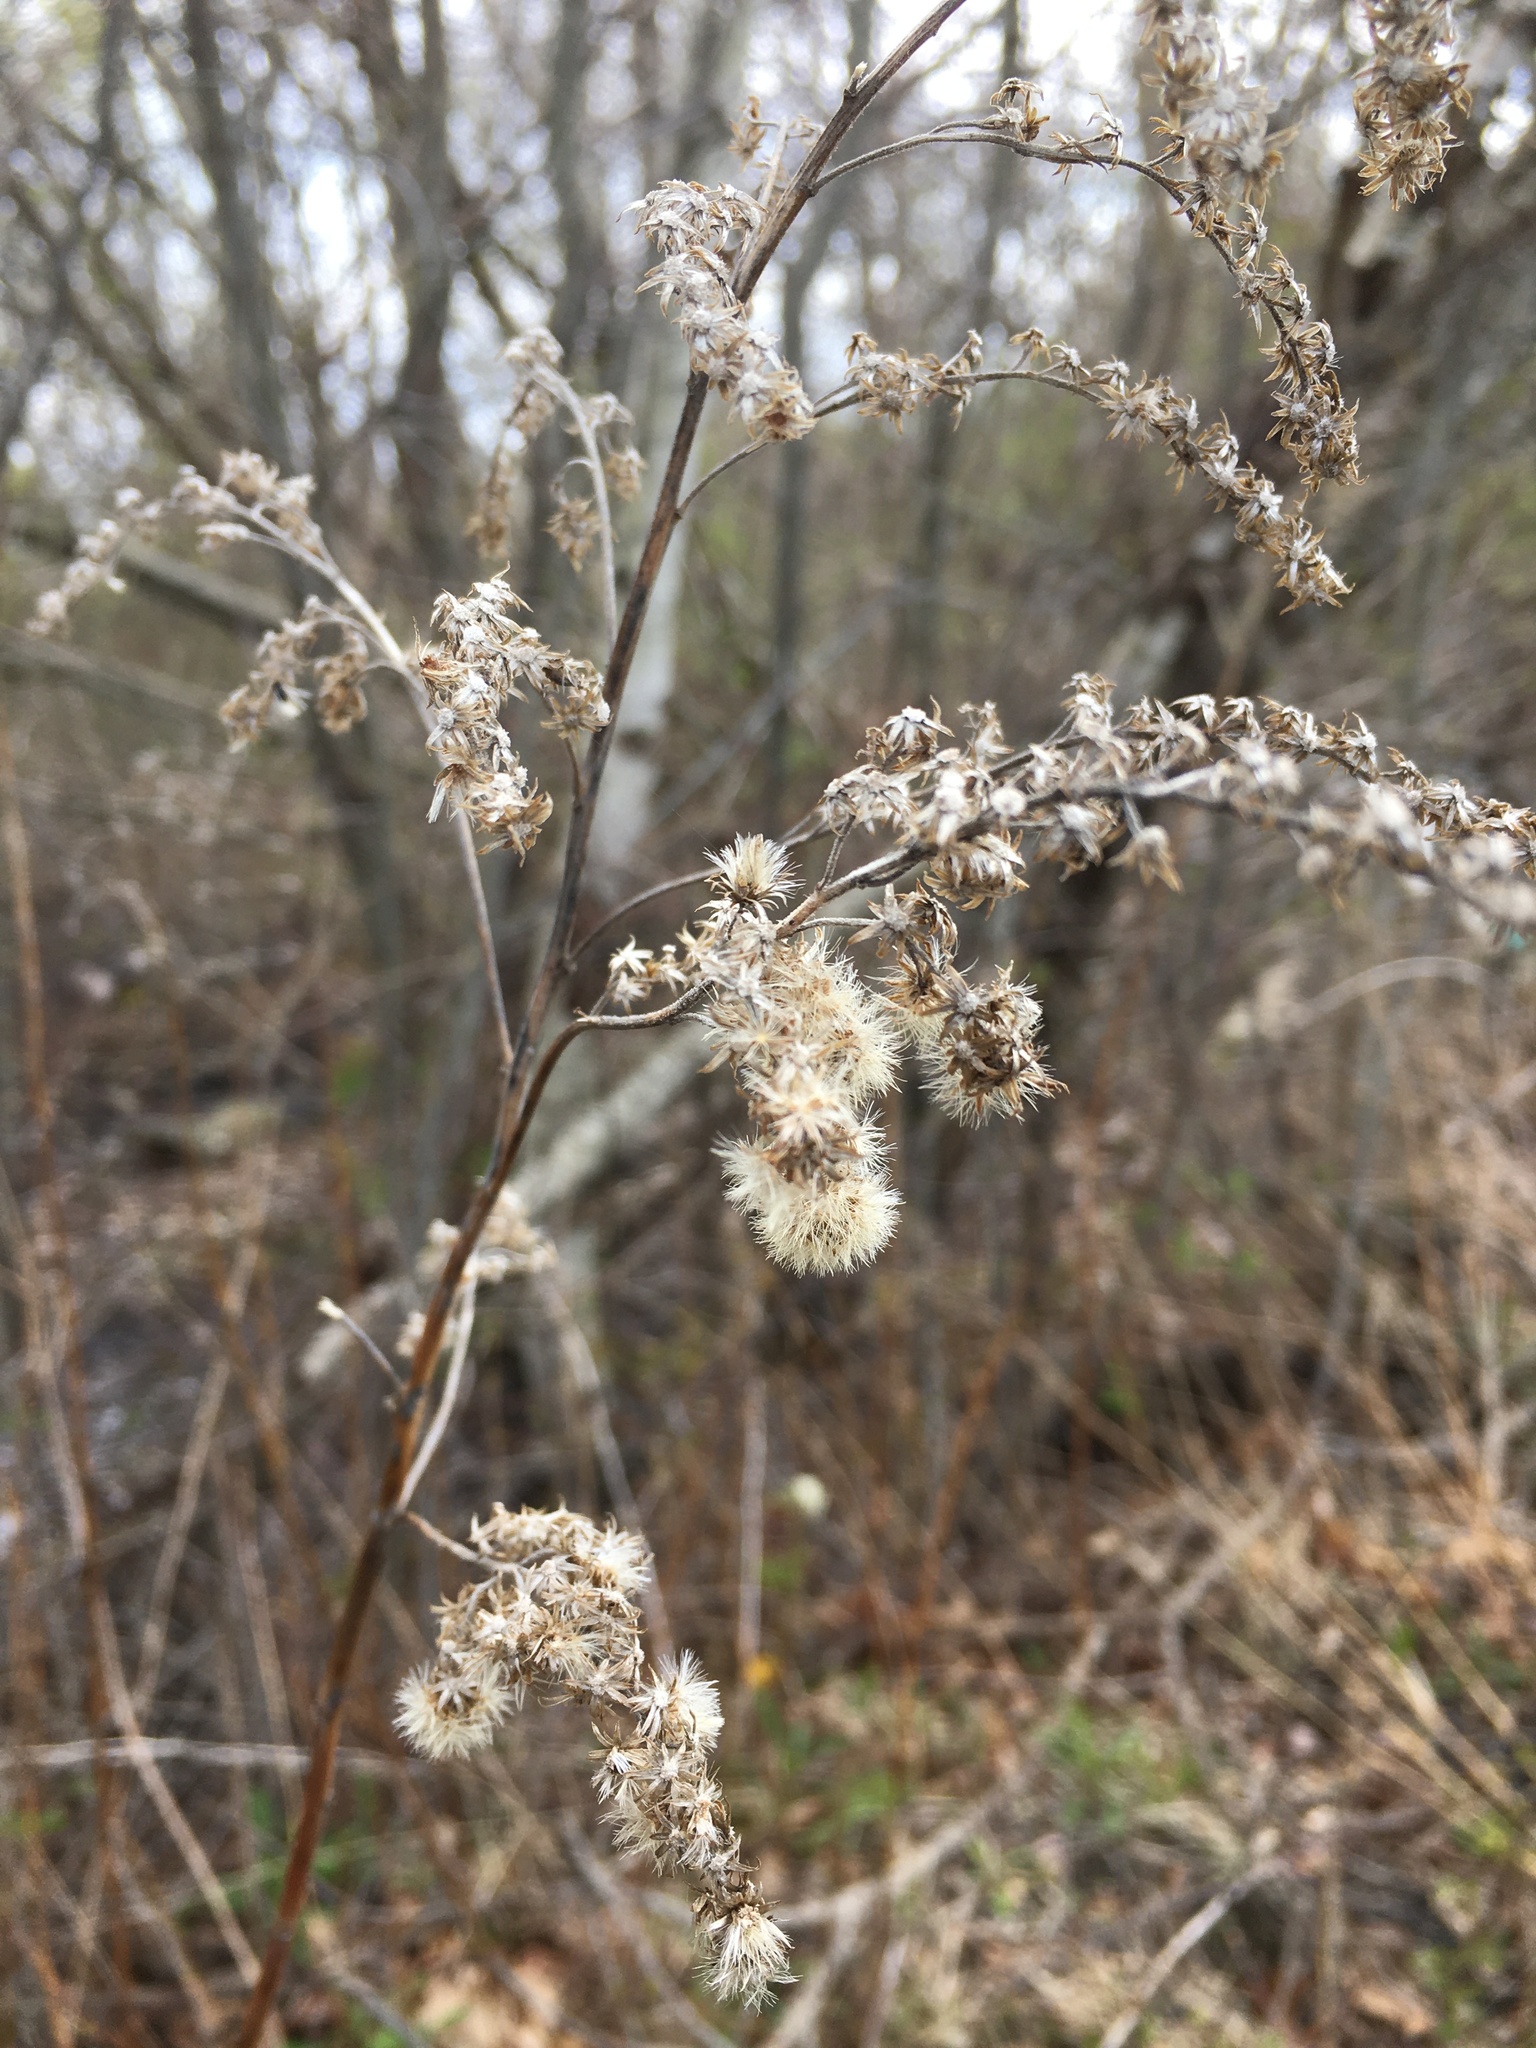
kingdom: Plantae
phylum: Tracheophyta
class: Magnoliopsida
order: Asterales
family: Asteraceae
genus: Solidago
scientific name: Solidago canadensis
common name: Canada goldenrod
